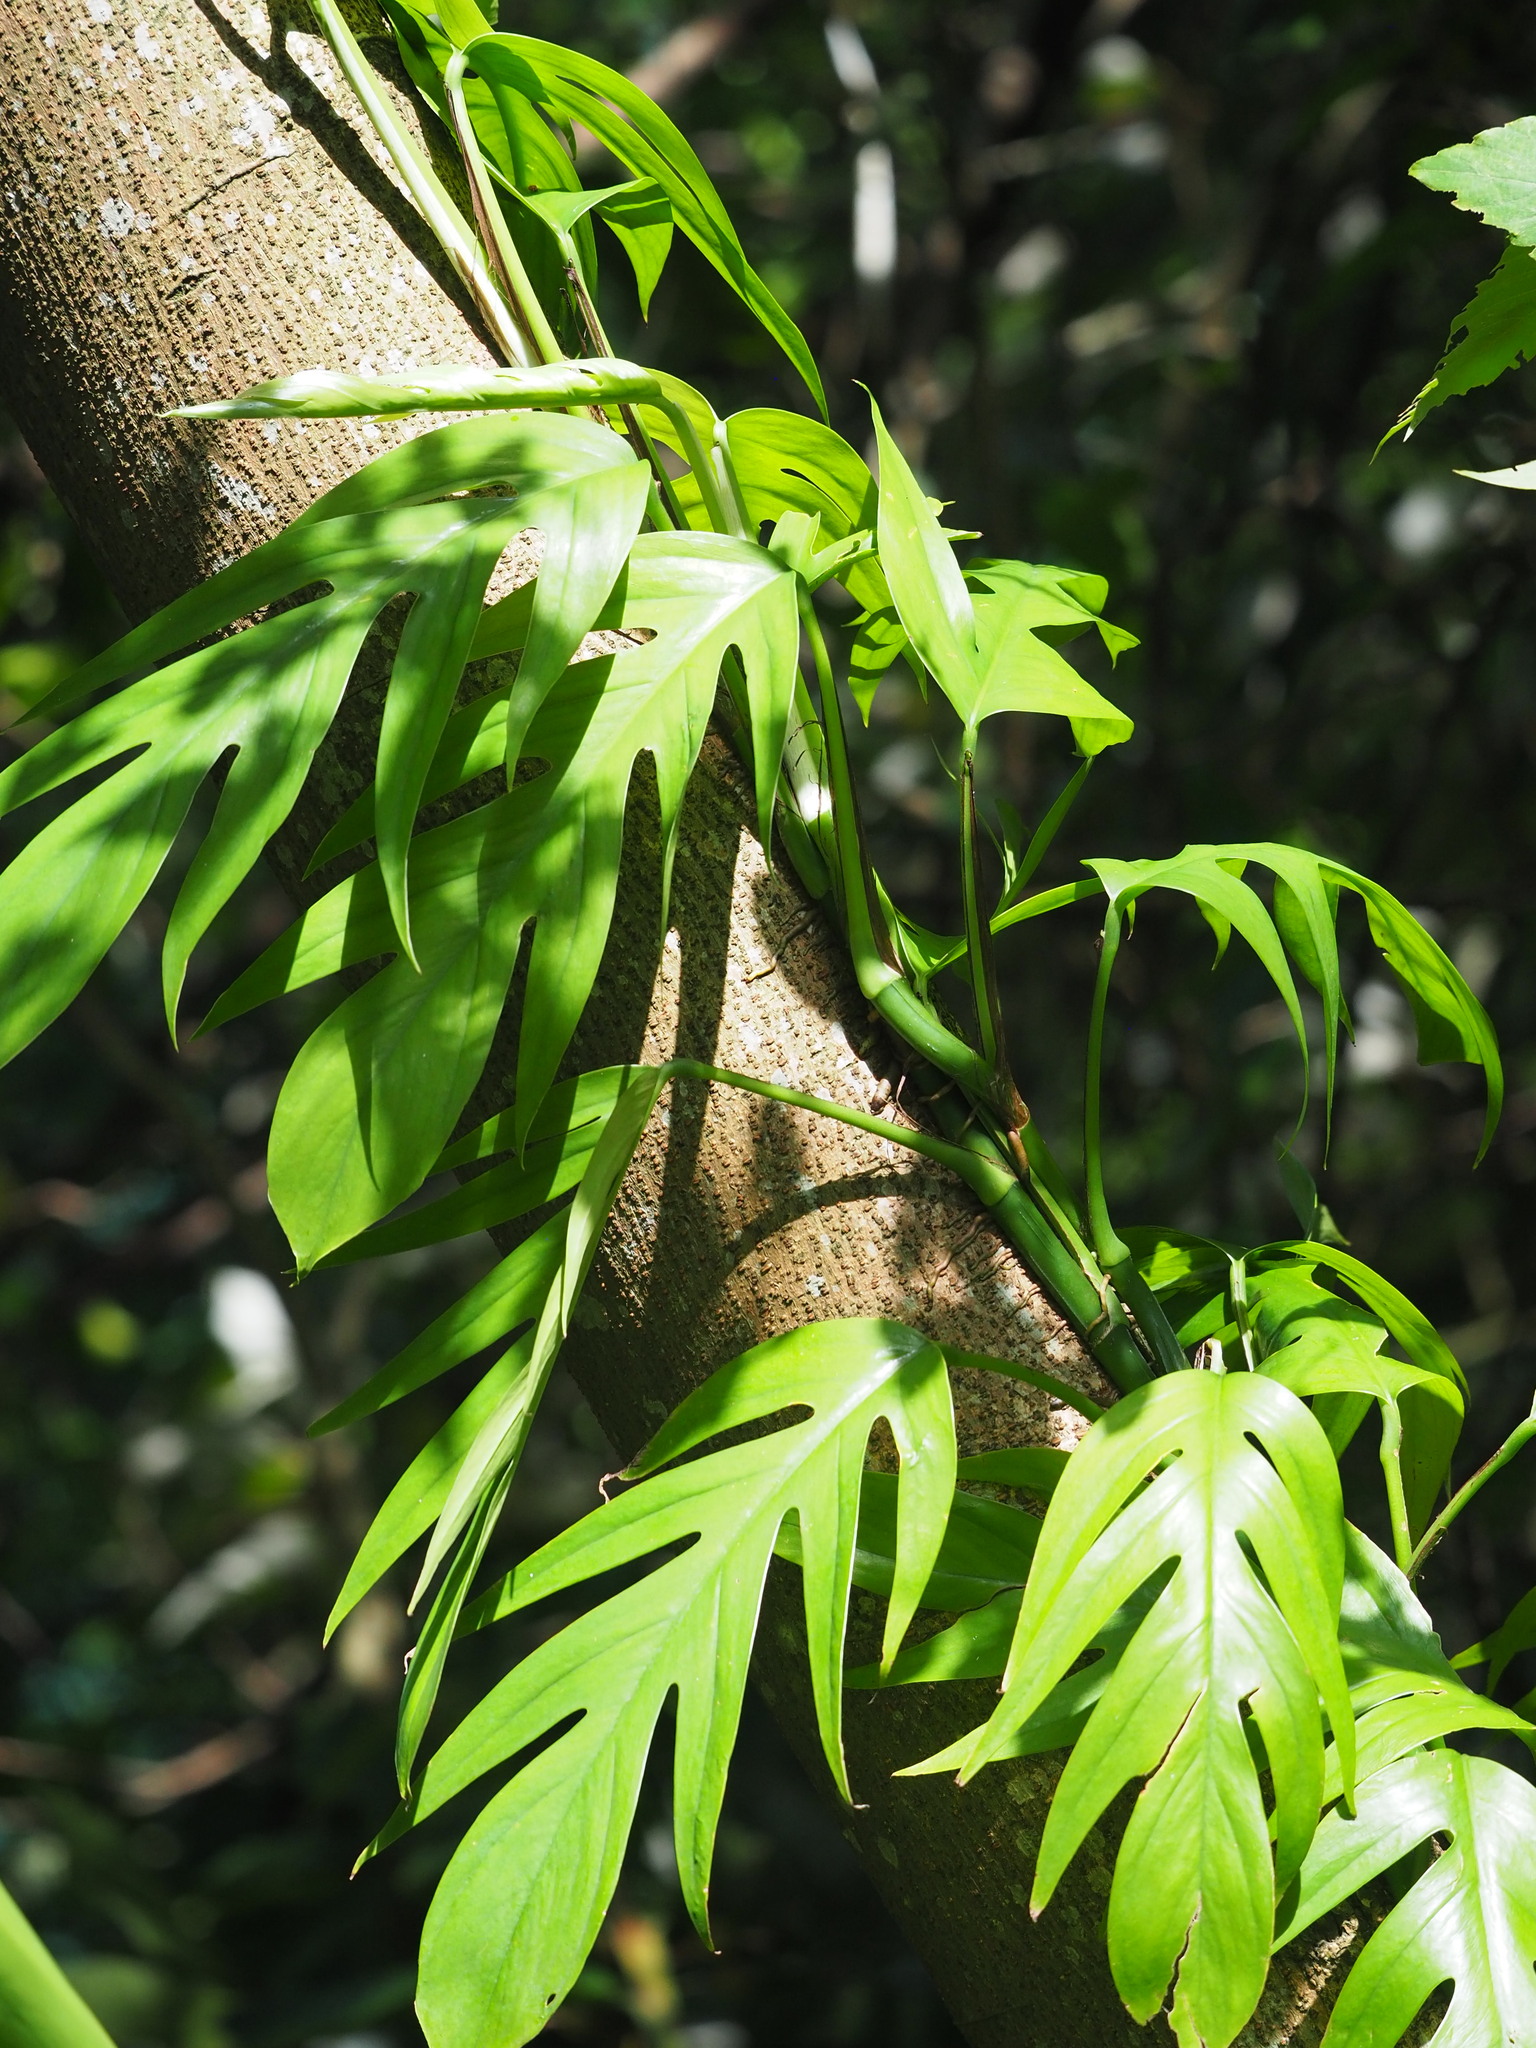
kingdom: Plantae
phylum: Tracheophyta
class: Liliopsida
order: Alismatales
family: Araceae
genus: Epipremnum
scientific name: Epipremnum pinnatum
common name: Centipede tongavine
